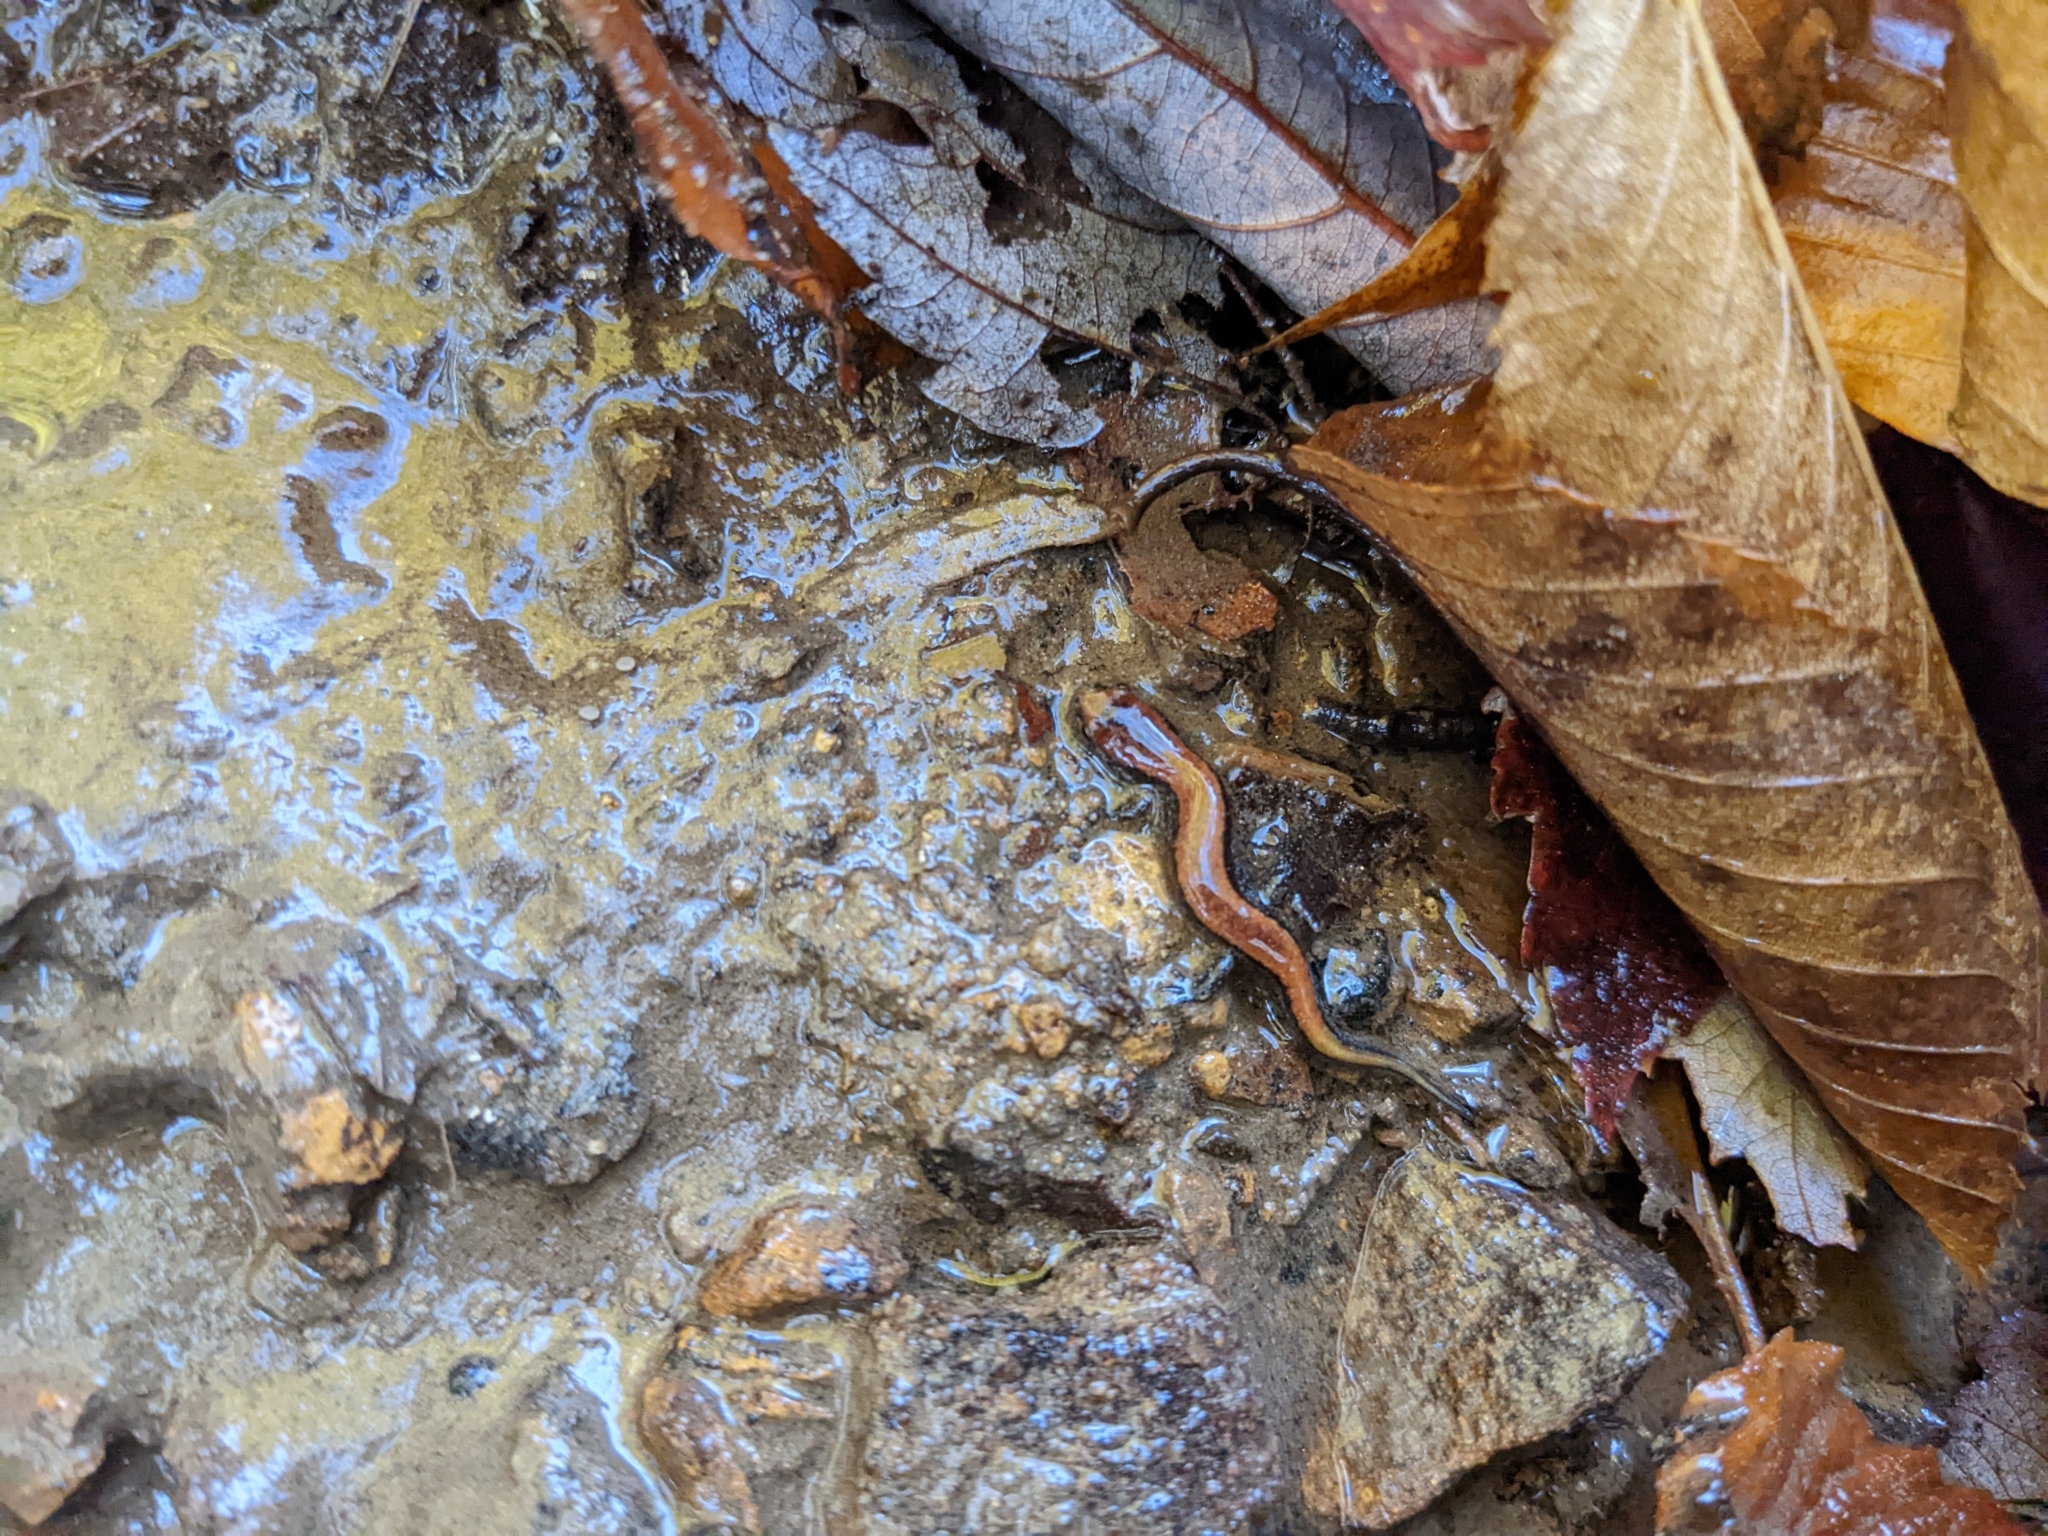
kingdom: Animalia
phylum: Chordata
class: Amphibia
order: Caudata
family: Plethodontidae
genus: Desmognathus
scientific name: Desmognathus ochrophaeus
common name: Allegheny mountain dusky salamander
